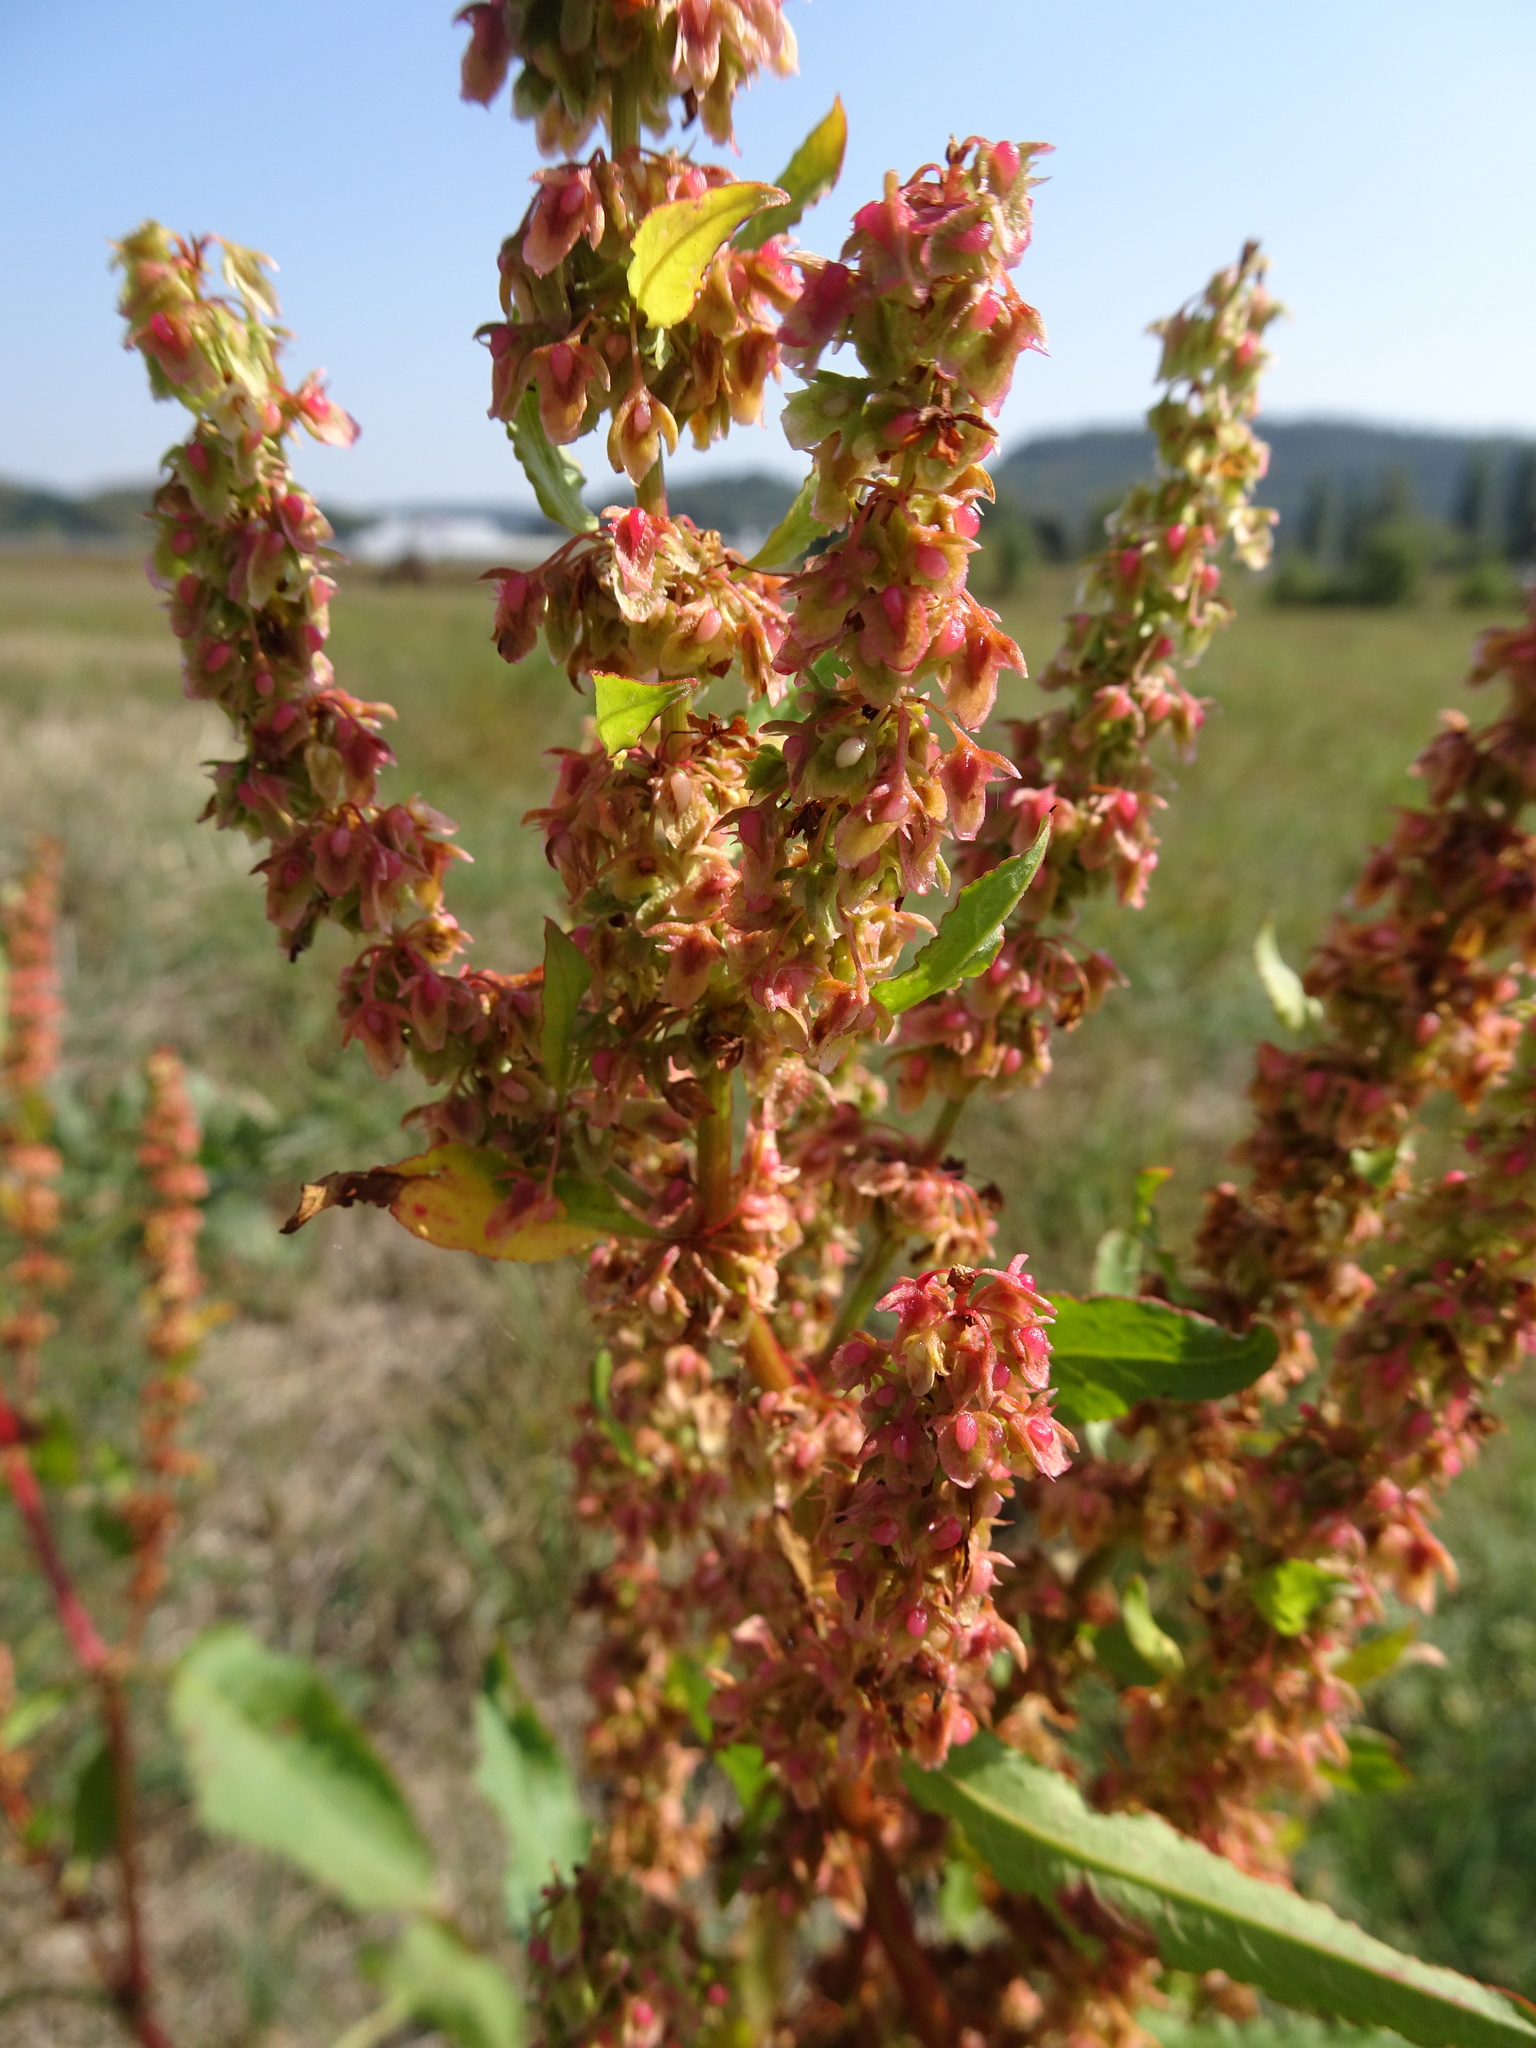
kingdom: Plantae
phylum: Tracheophyta
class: Magnoliopsida
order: Caryophyllales
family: Polygonaceae
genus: Rumex
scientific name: Rumex obtusifolius
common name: Bitter dock
